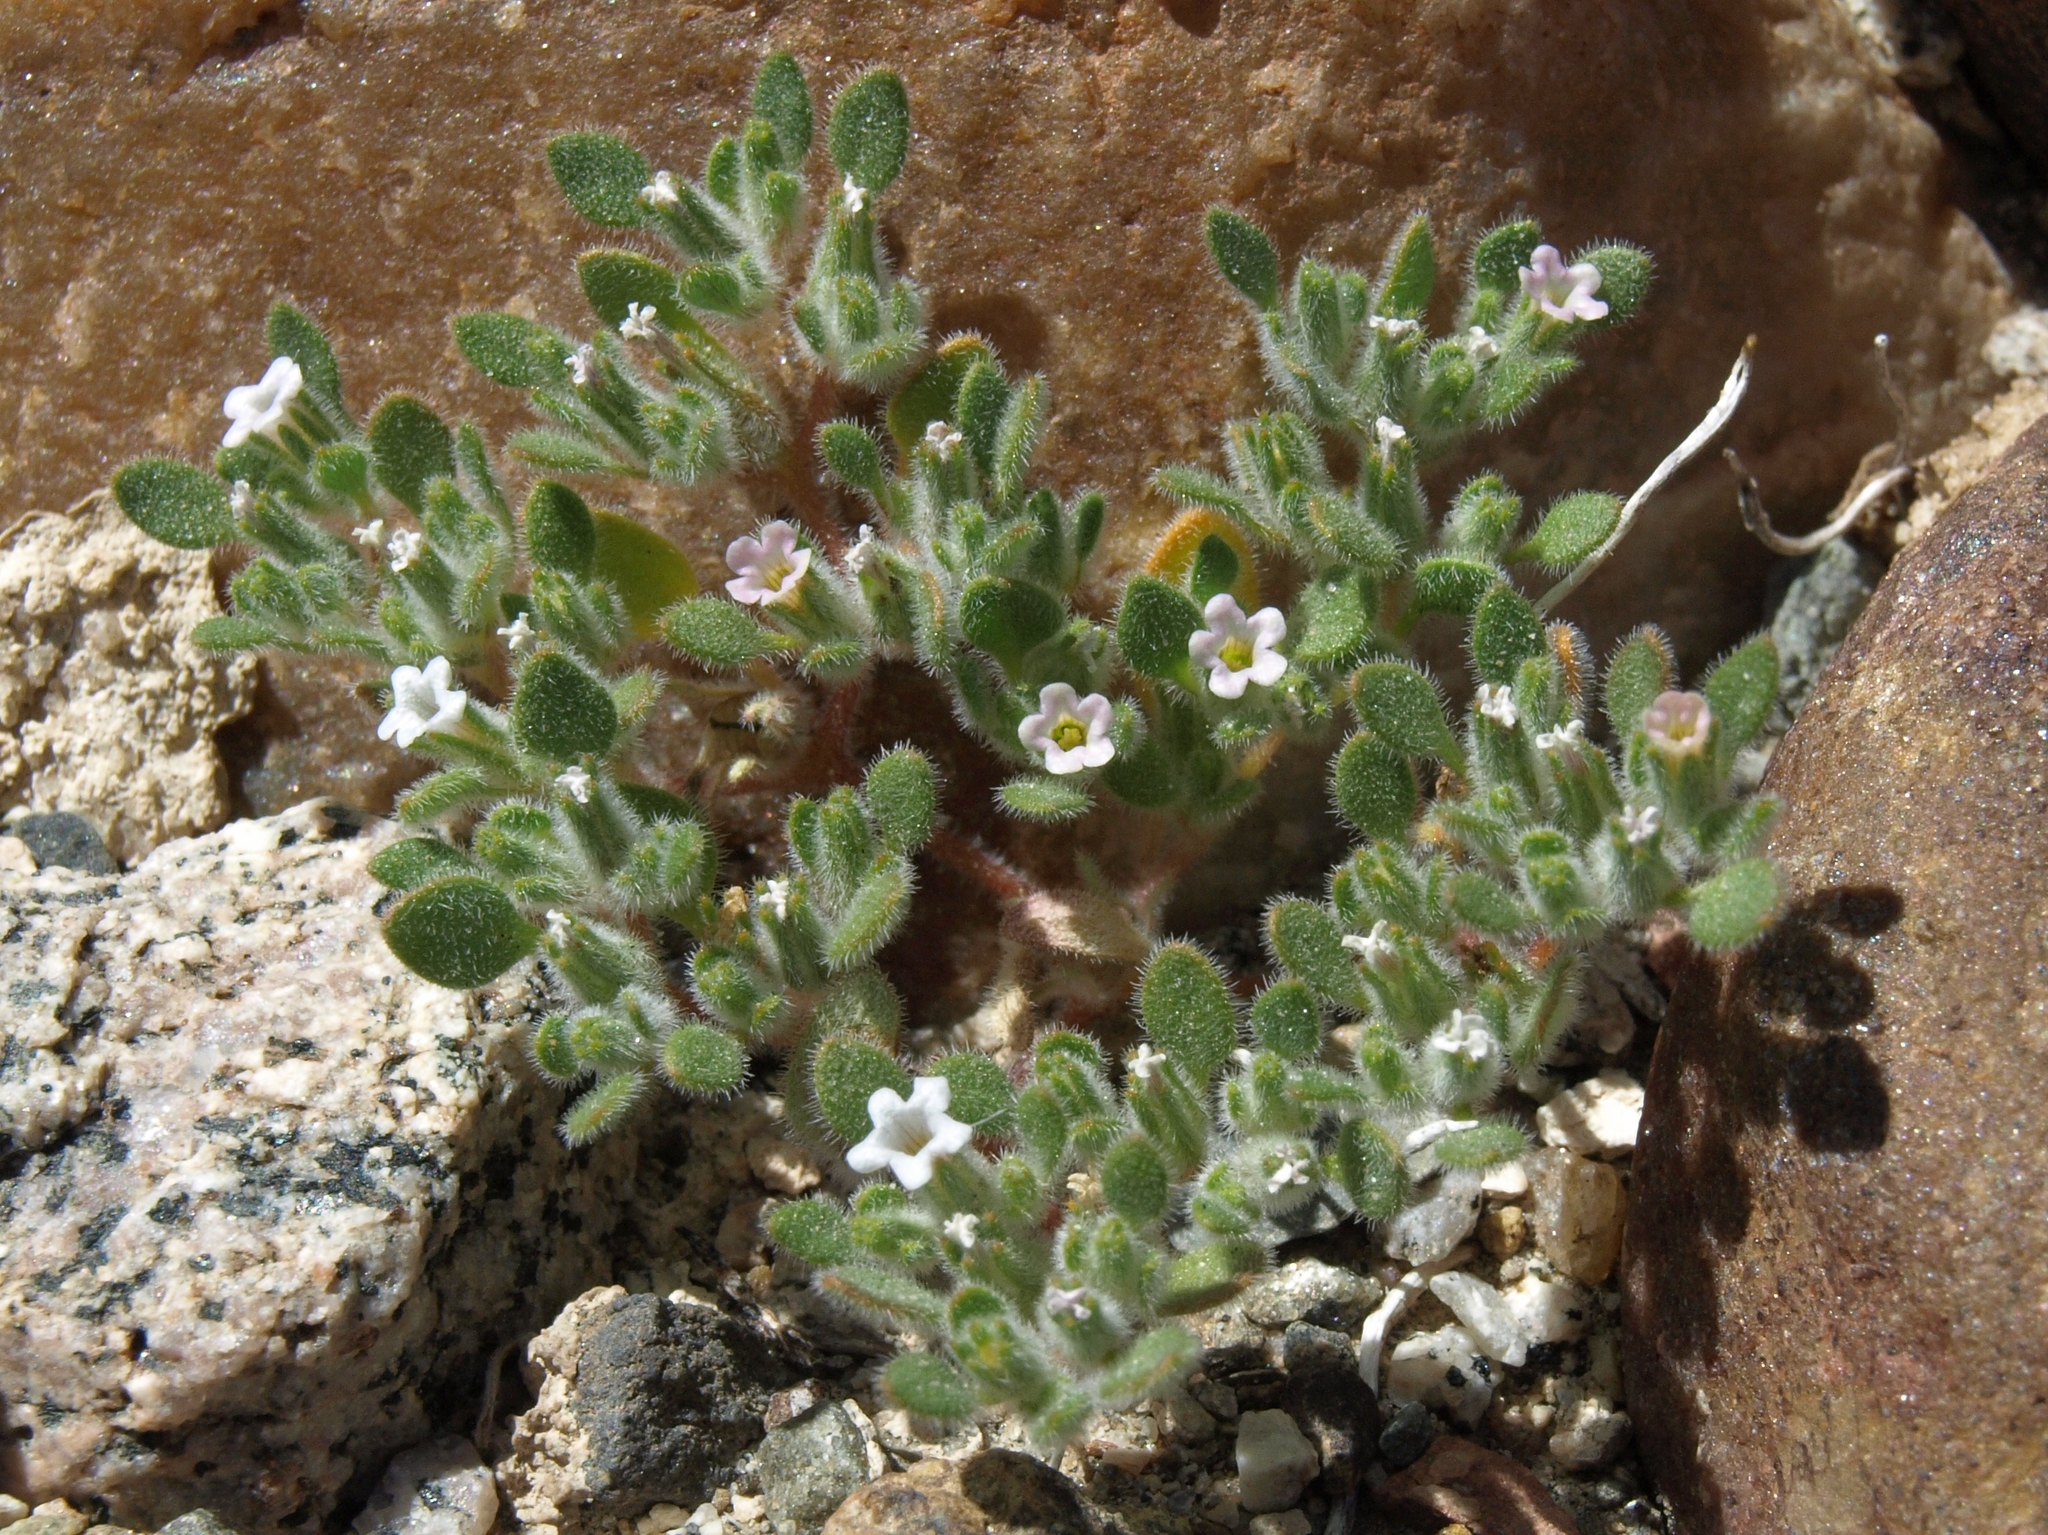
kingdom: Plantae
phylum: Tracheophyta
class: Magnoliopsida
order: Boraginales
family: Namaceae
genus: Nama
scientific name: Nama pusilla
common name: Eggleaf nama
